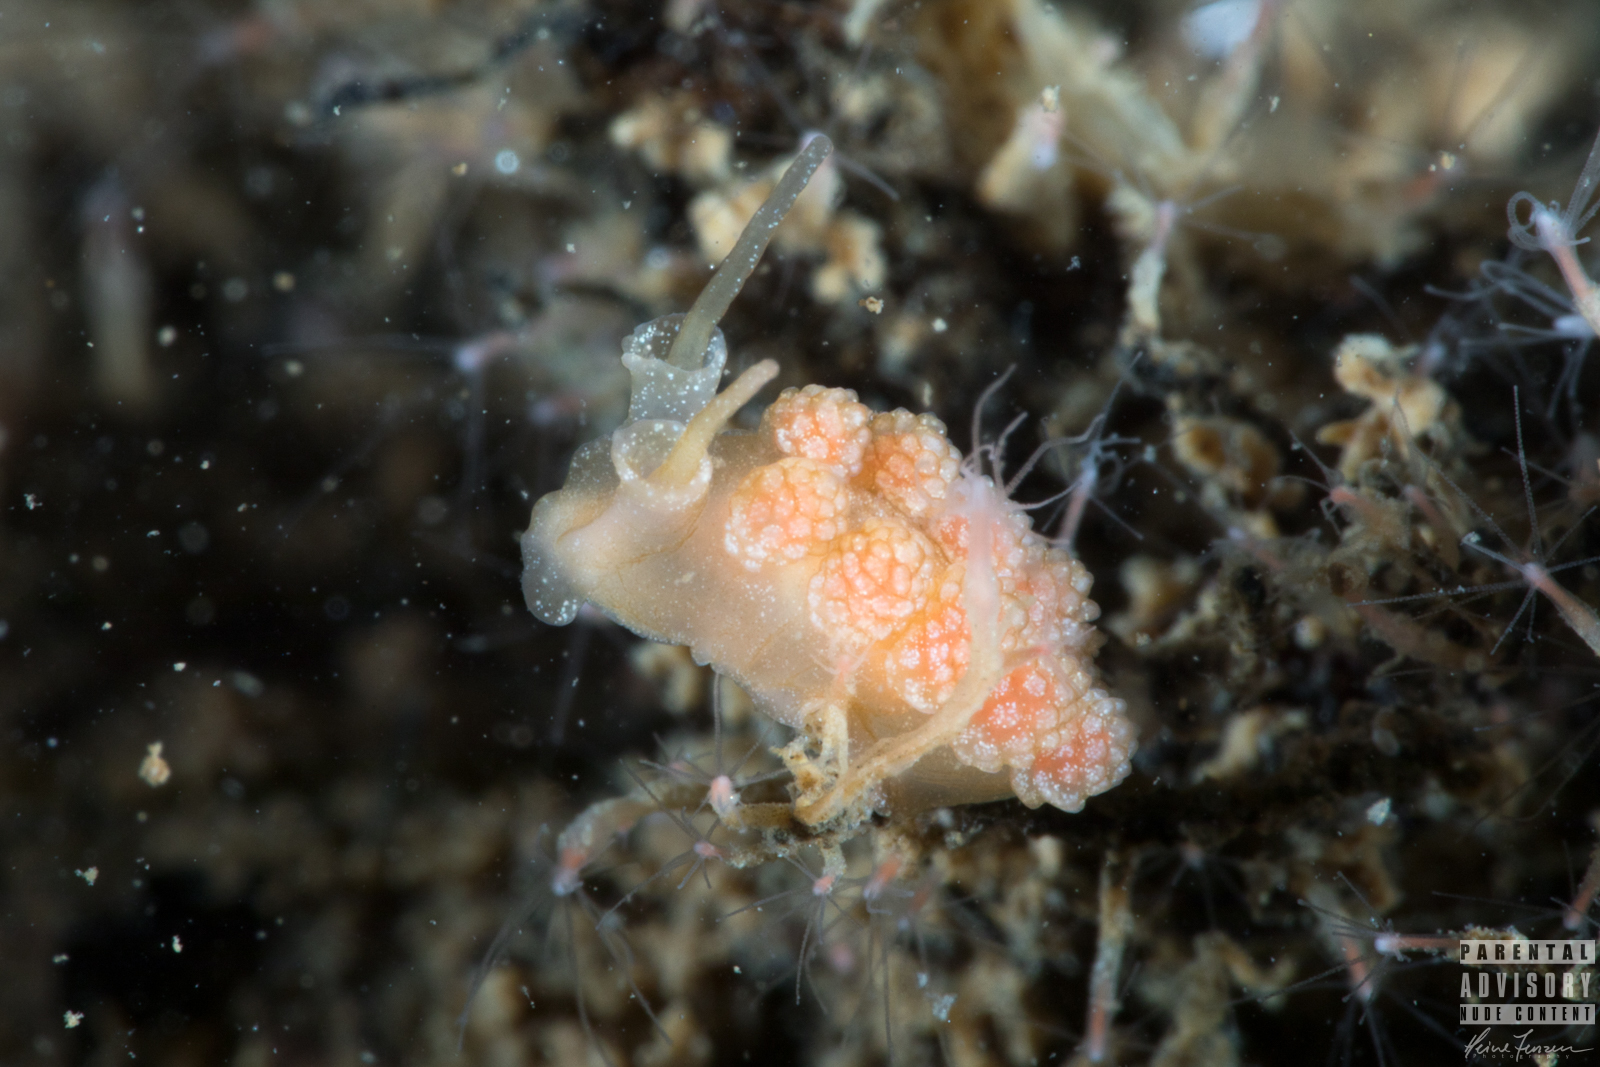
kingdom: Animalia
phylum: Mollusca
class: Gastropoda
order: Nudibranchia
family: Dotidae
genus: Doto
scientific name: Doto fragilis
